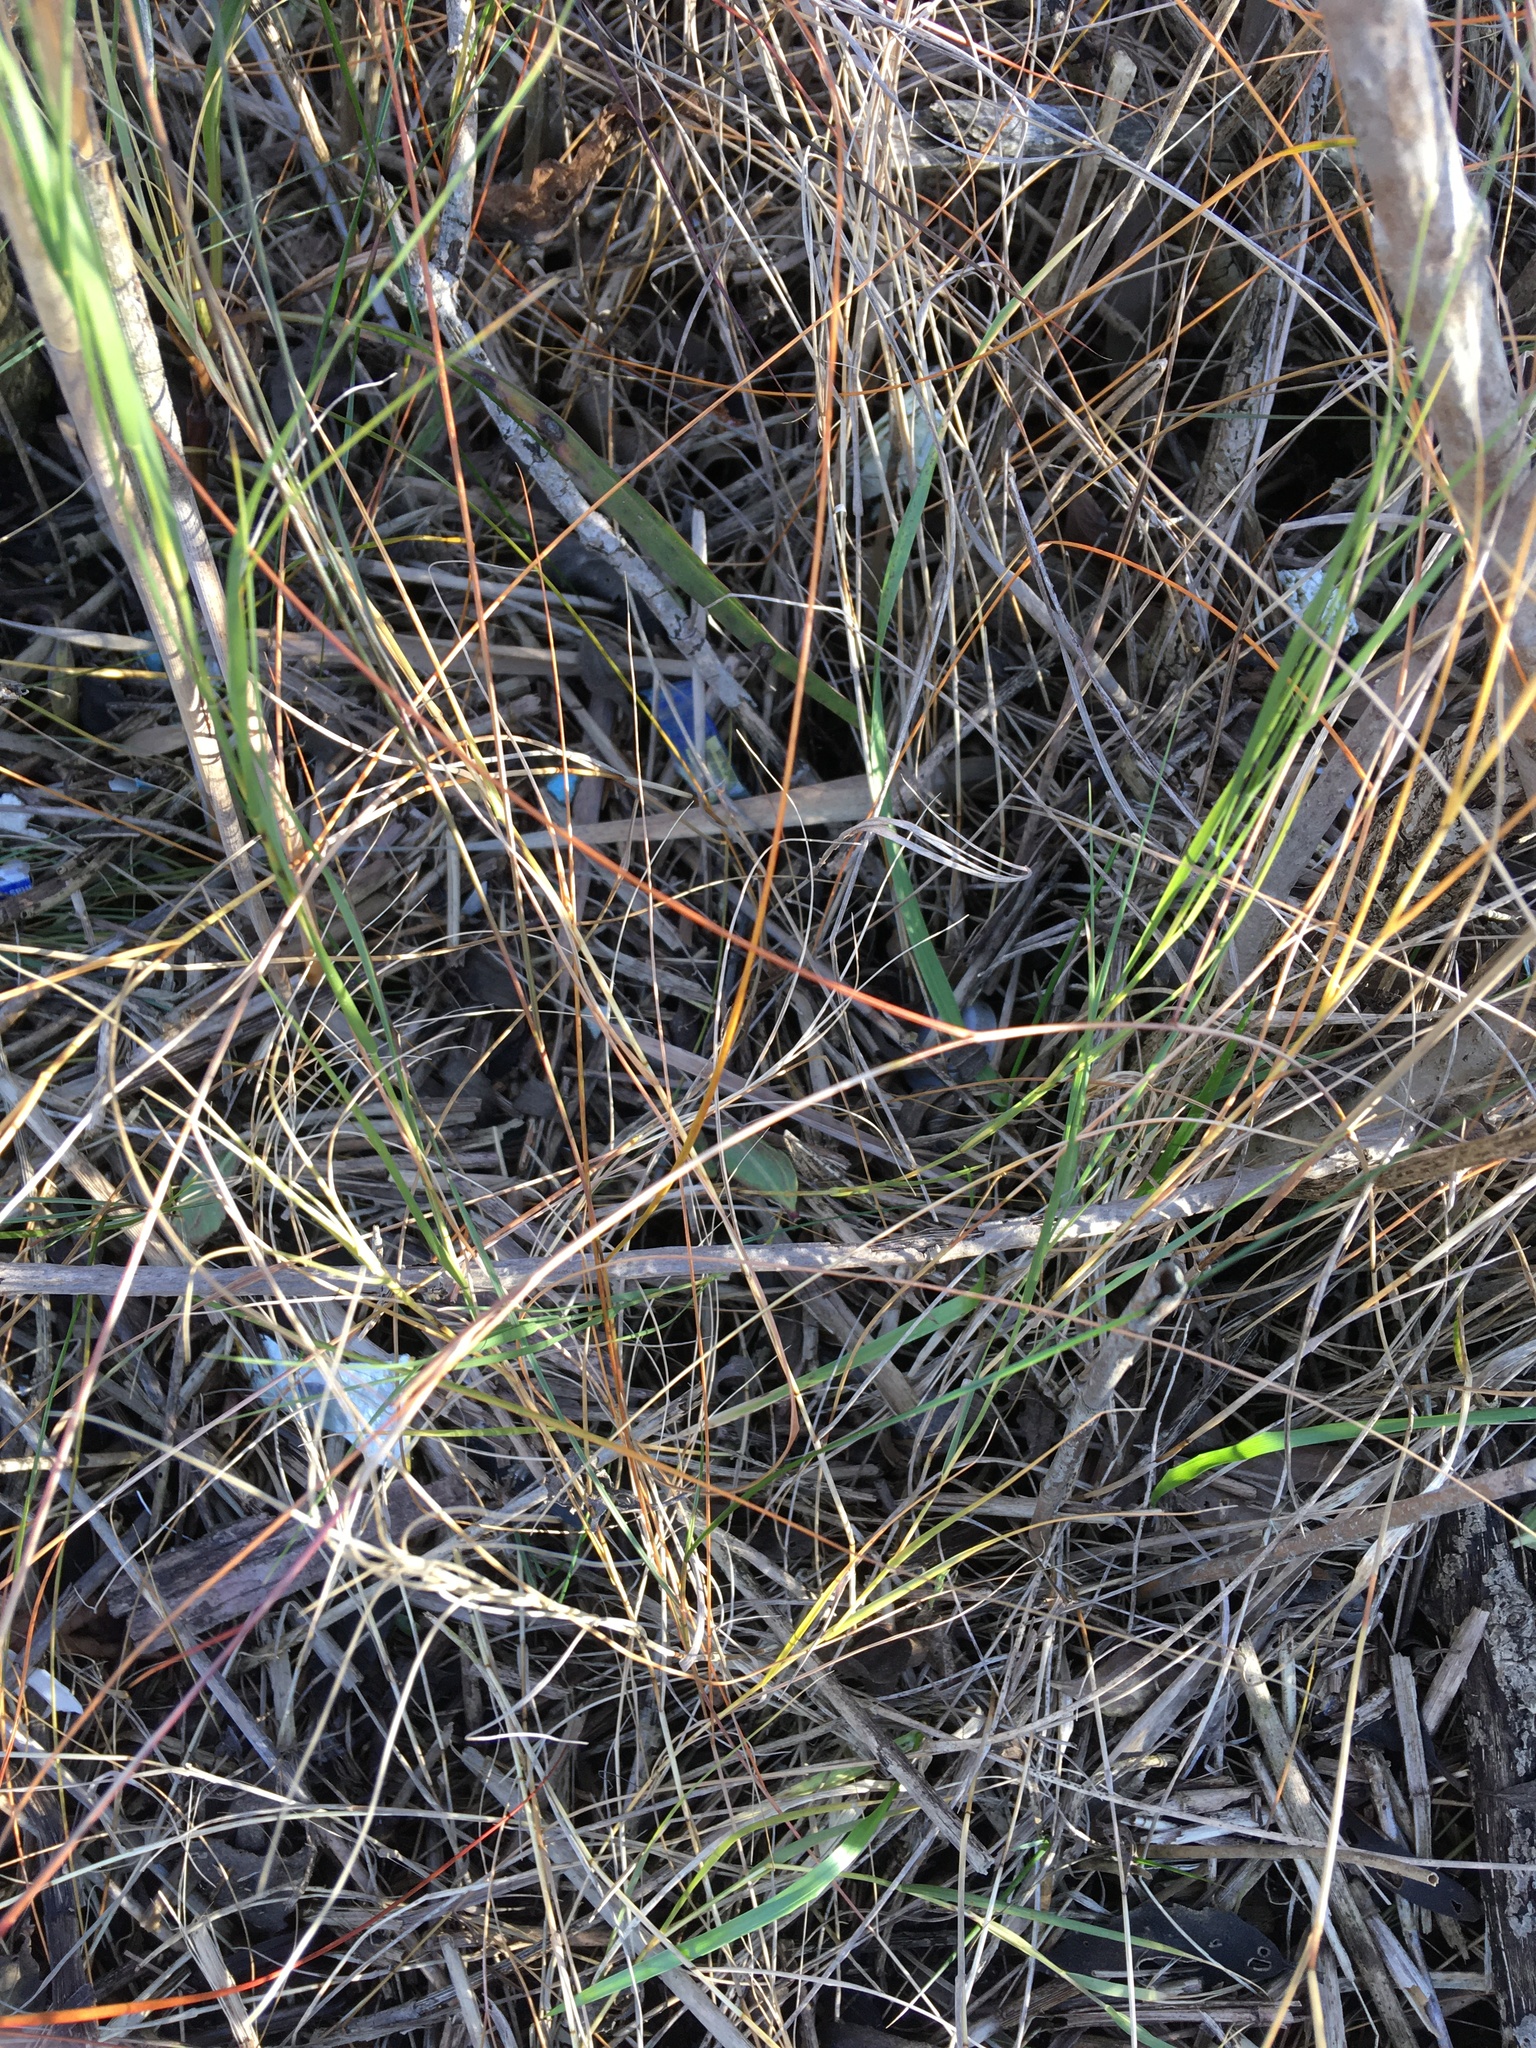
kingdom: Plantae
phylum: Tracheophyta
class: Liliopsida
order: Poales
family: Poaceae
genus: Sporobolus
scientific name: Sporobolus pumilus
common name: Highwater grass
